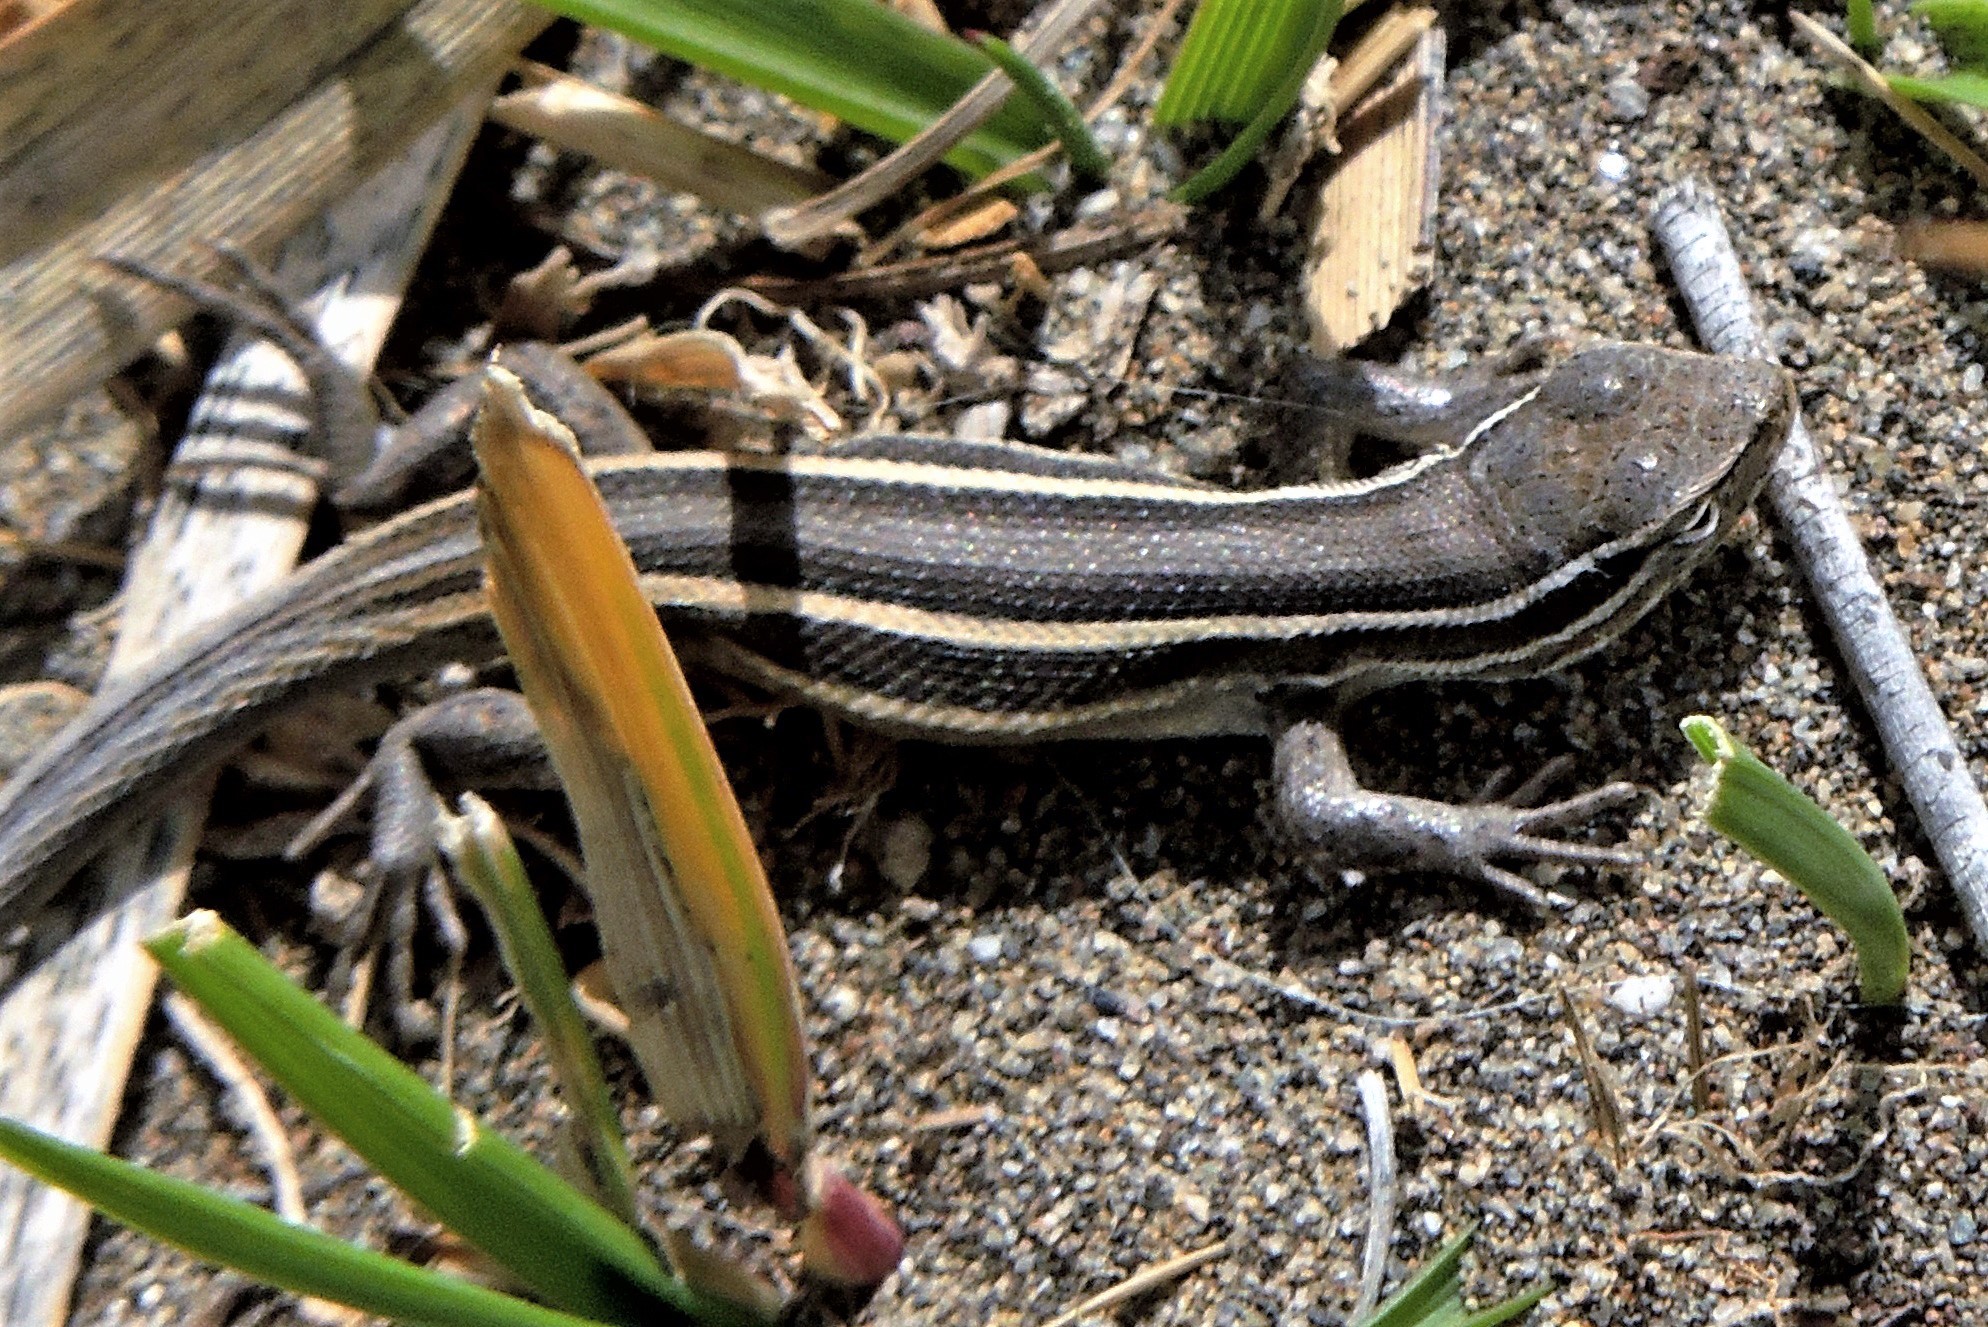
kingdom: Animalia
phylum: Chordata
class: Squamata
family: Liolaemidae
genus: Liolaemus
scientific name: Liolaemus gracilis
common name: Graceful tree iguana
